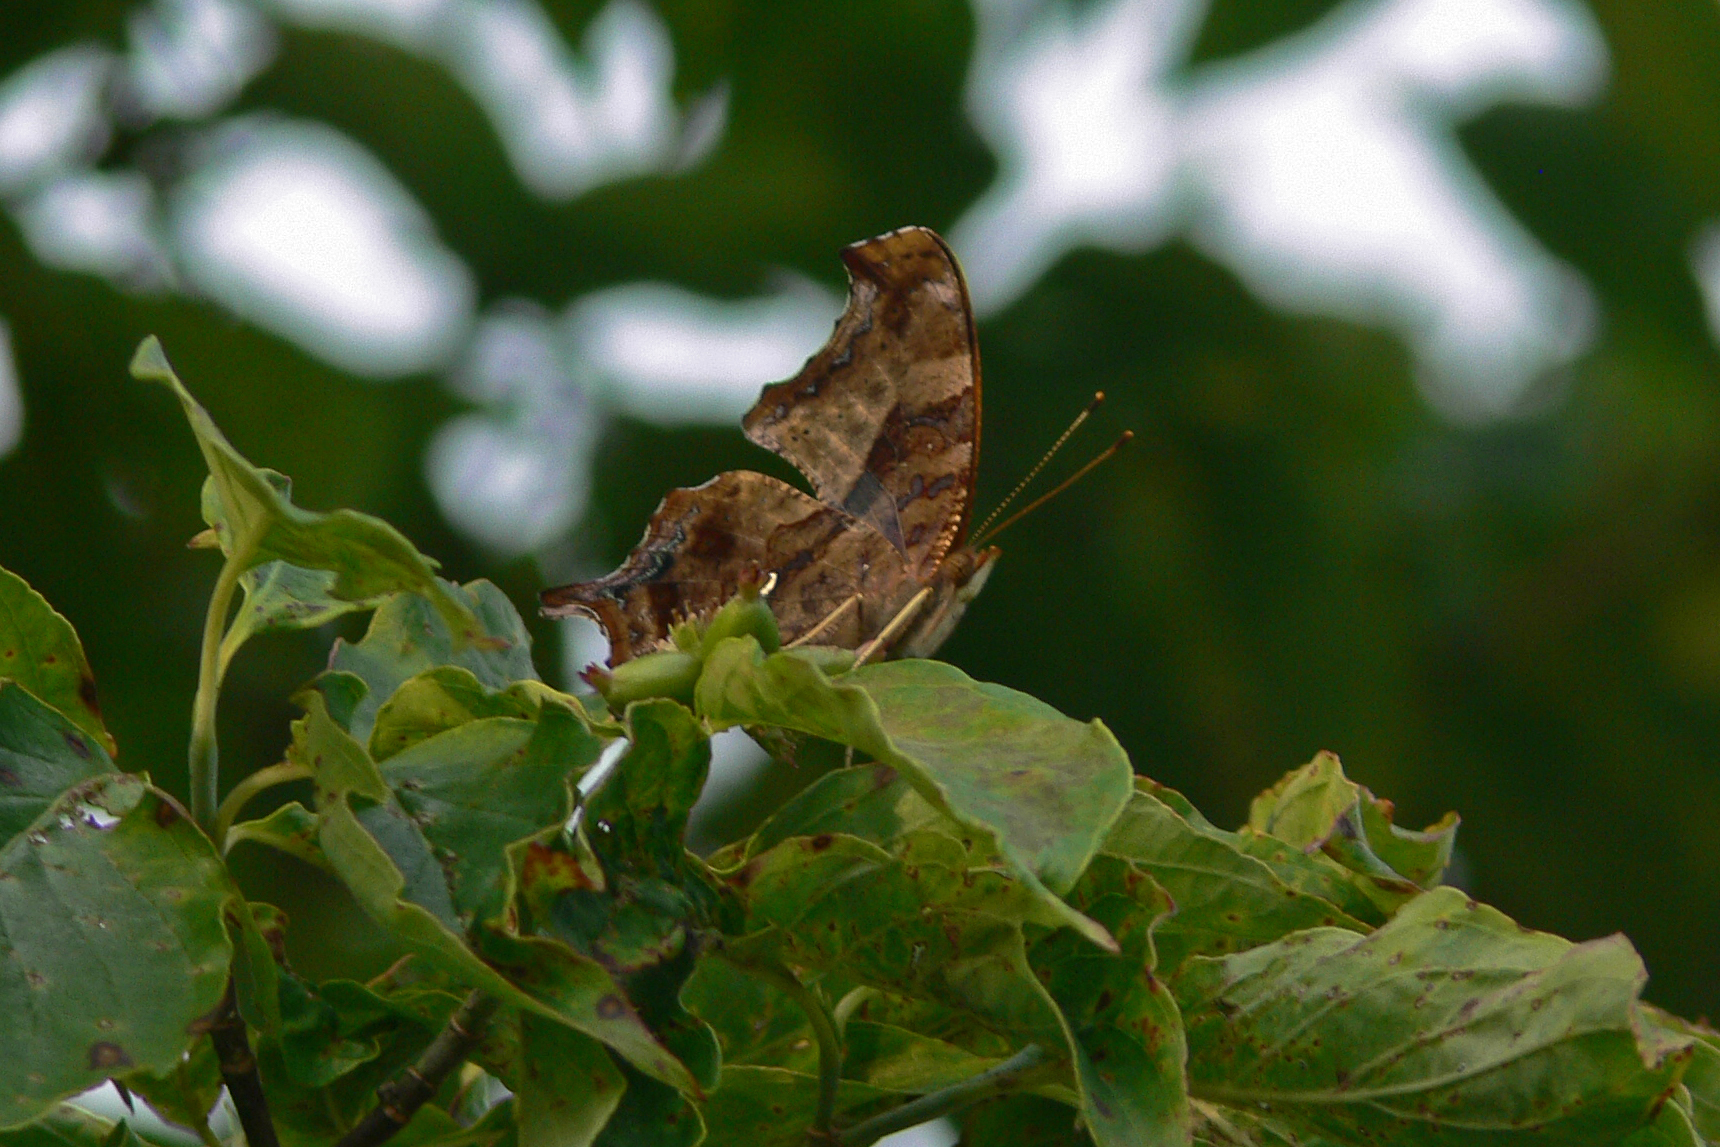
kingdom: Animalia
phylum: Arthropoda
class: Insecta
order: Lepidoptera
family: Nymphalidae
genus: Polygonia
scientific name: Polygonia interrogationis
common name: Question mark
